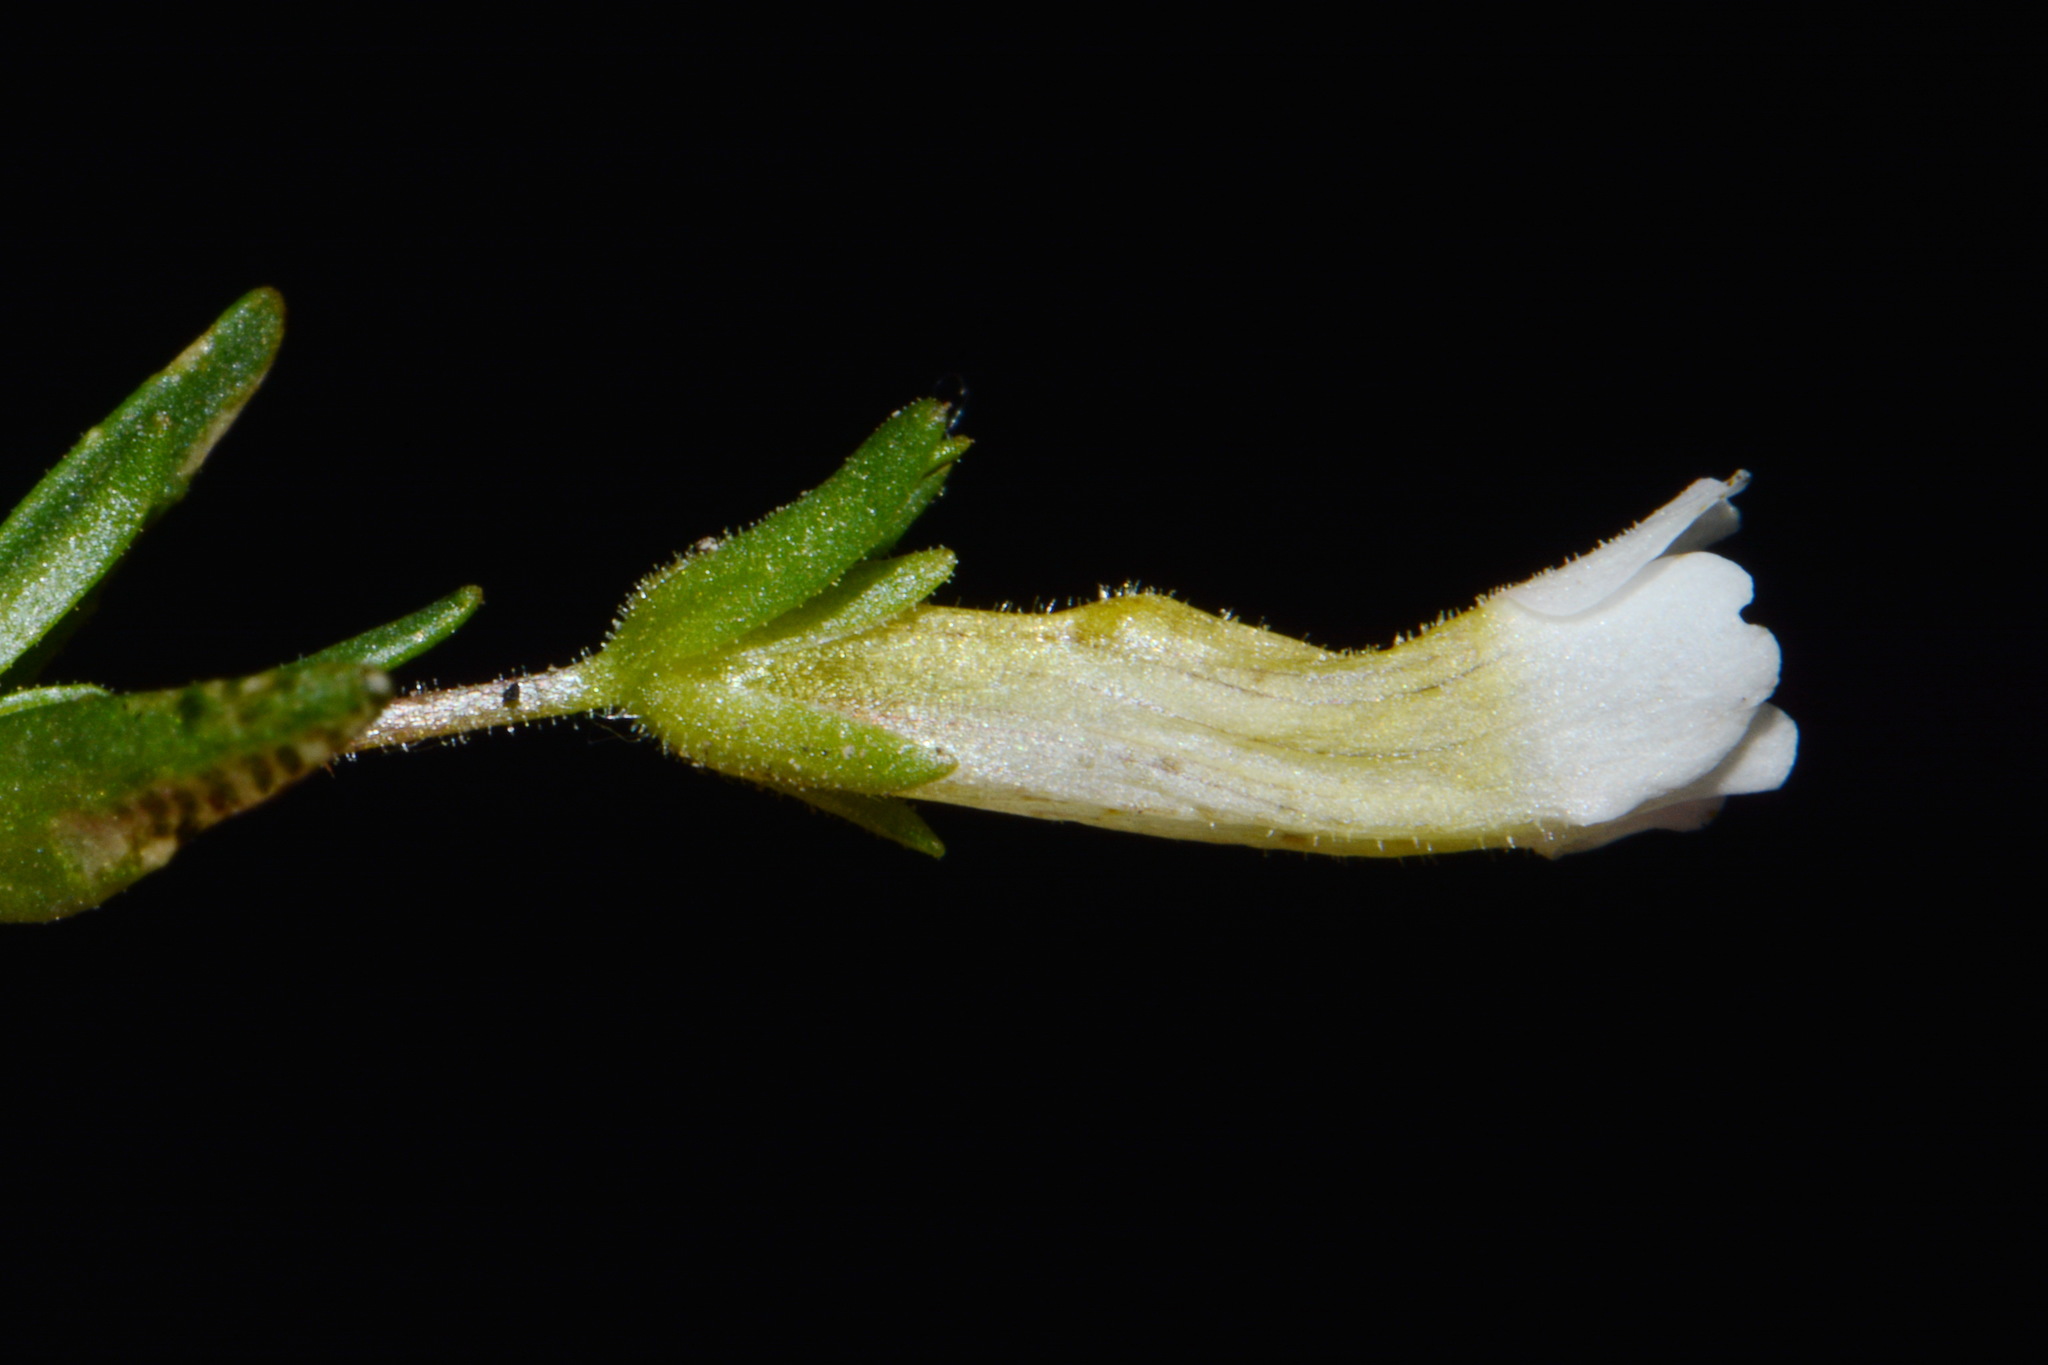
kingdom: Plantae
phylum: Tracheophyta
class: Magnoliopsida
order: Lamiales
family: Plantaginaceae
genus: Gratiola
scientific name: Gratiola quartermaniae
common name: Quarterman's hedge-hyssop
